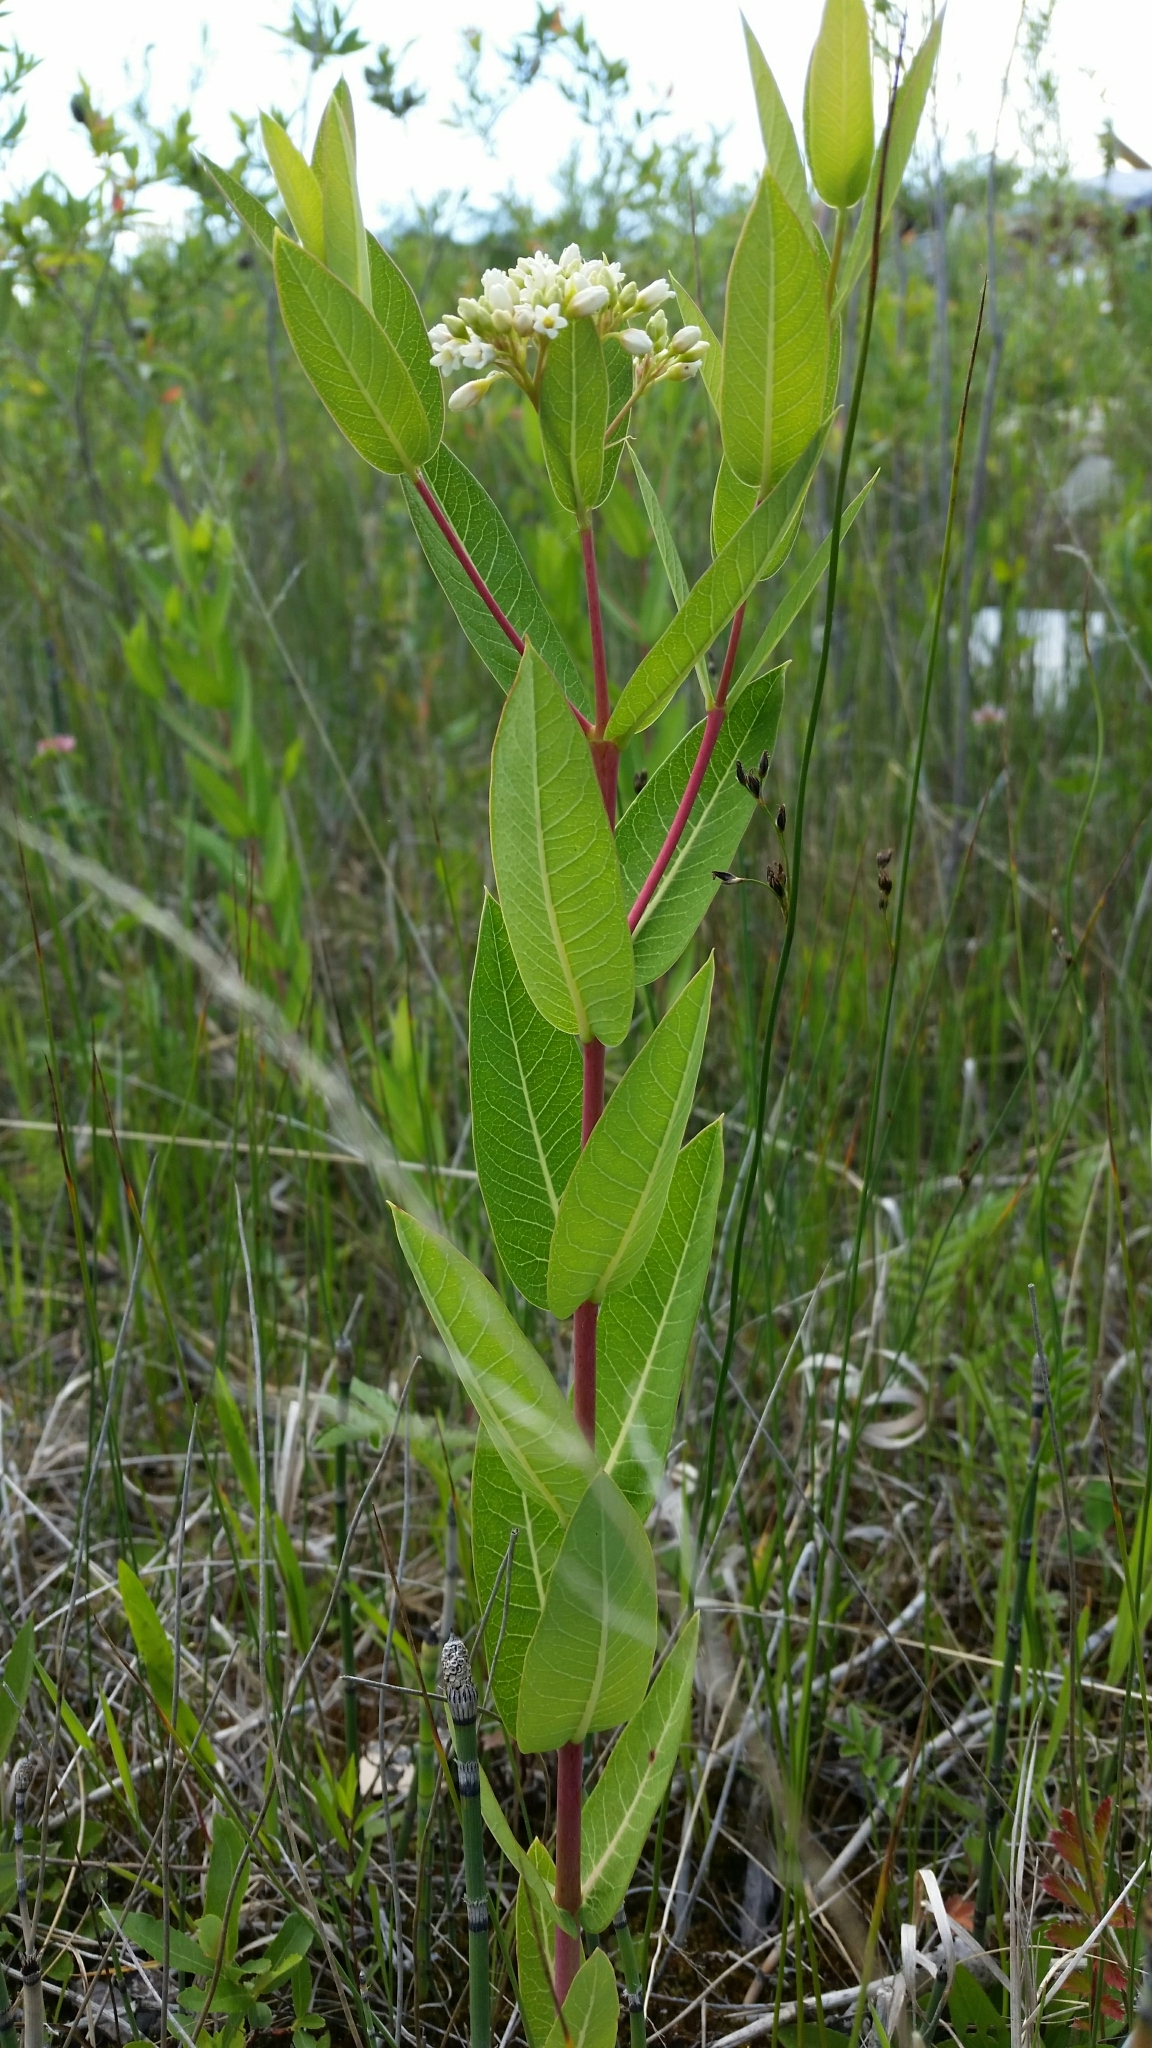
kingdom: Plantae
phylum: Tracheophyta
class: Magnoliopsida
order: Gentianales
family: Apocynaceae
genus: Apocynum
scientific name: Apocynum cannabinum
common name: Hemp dogbane
